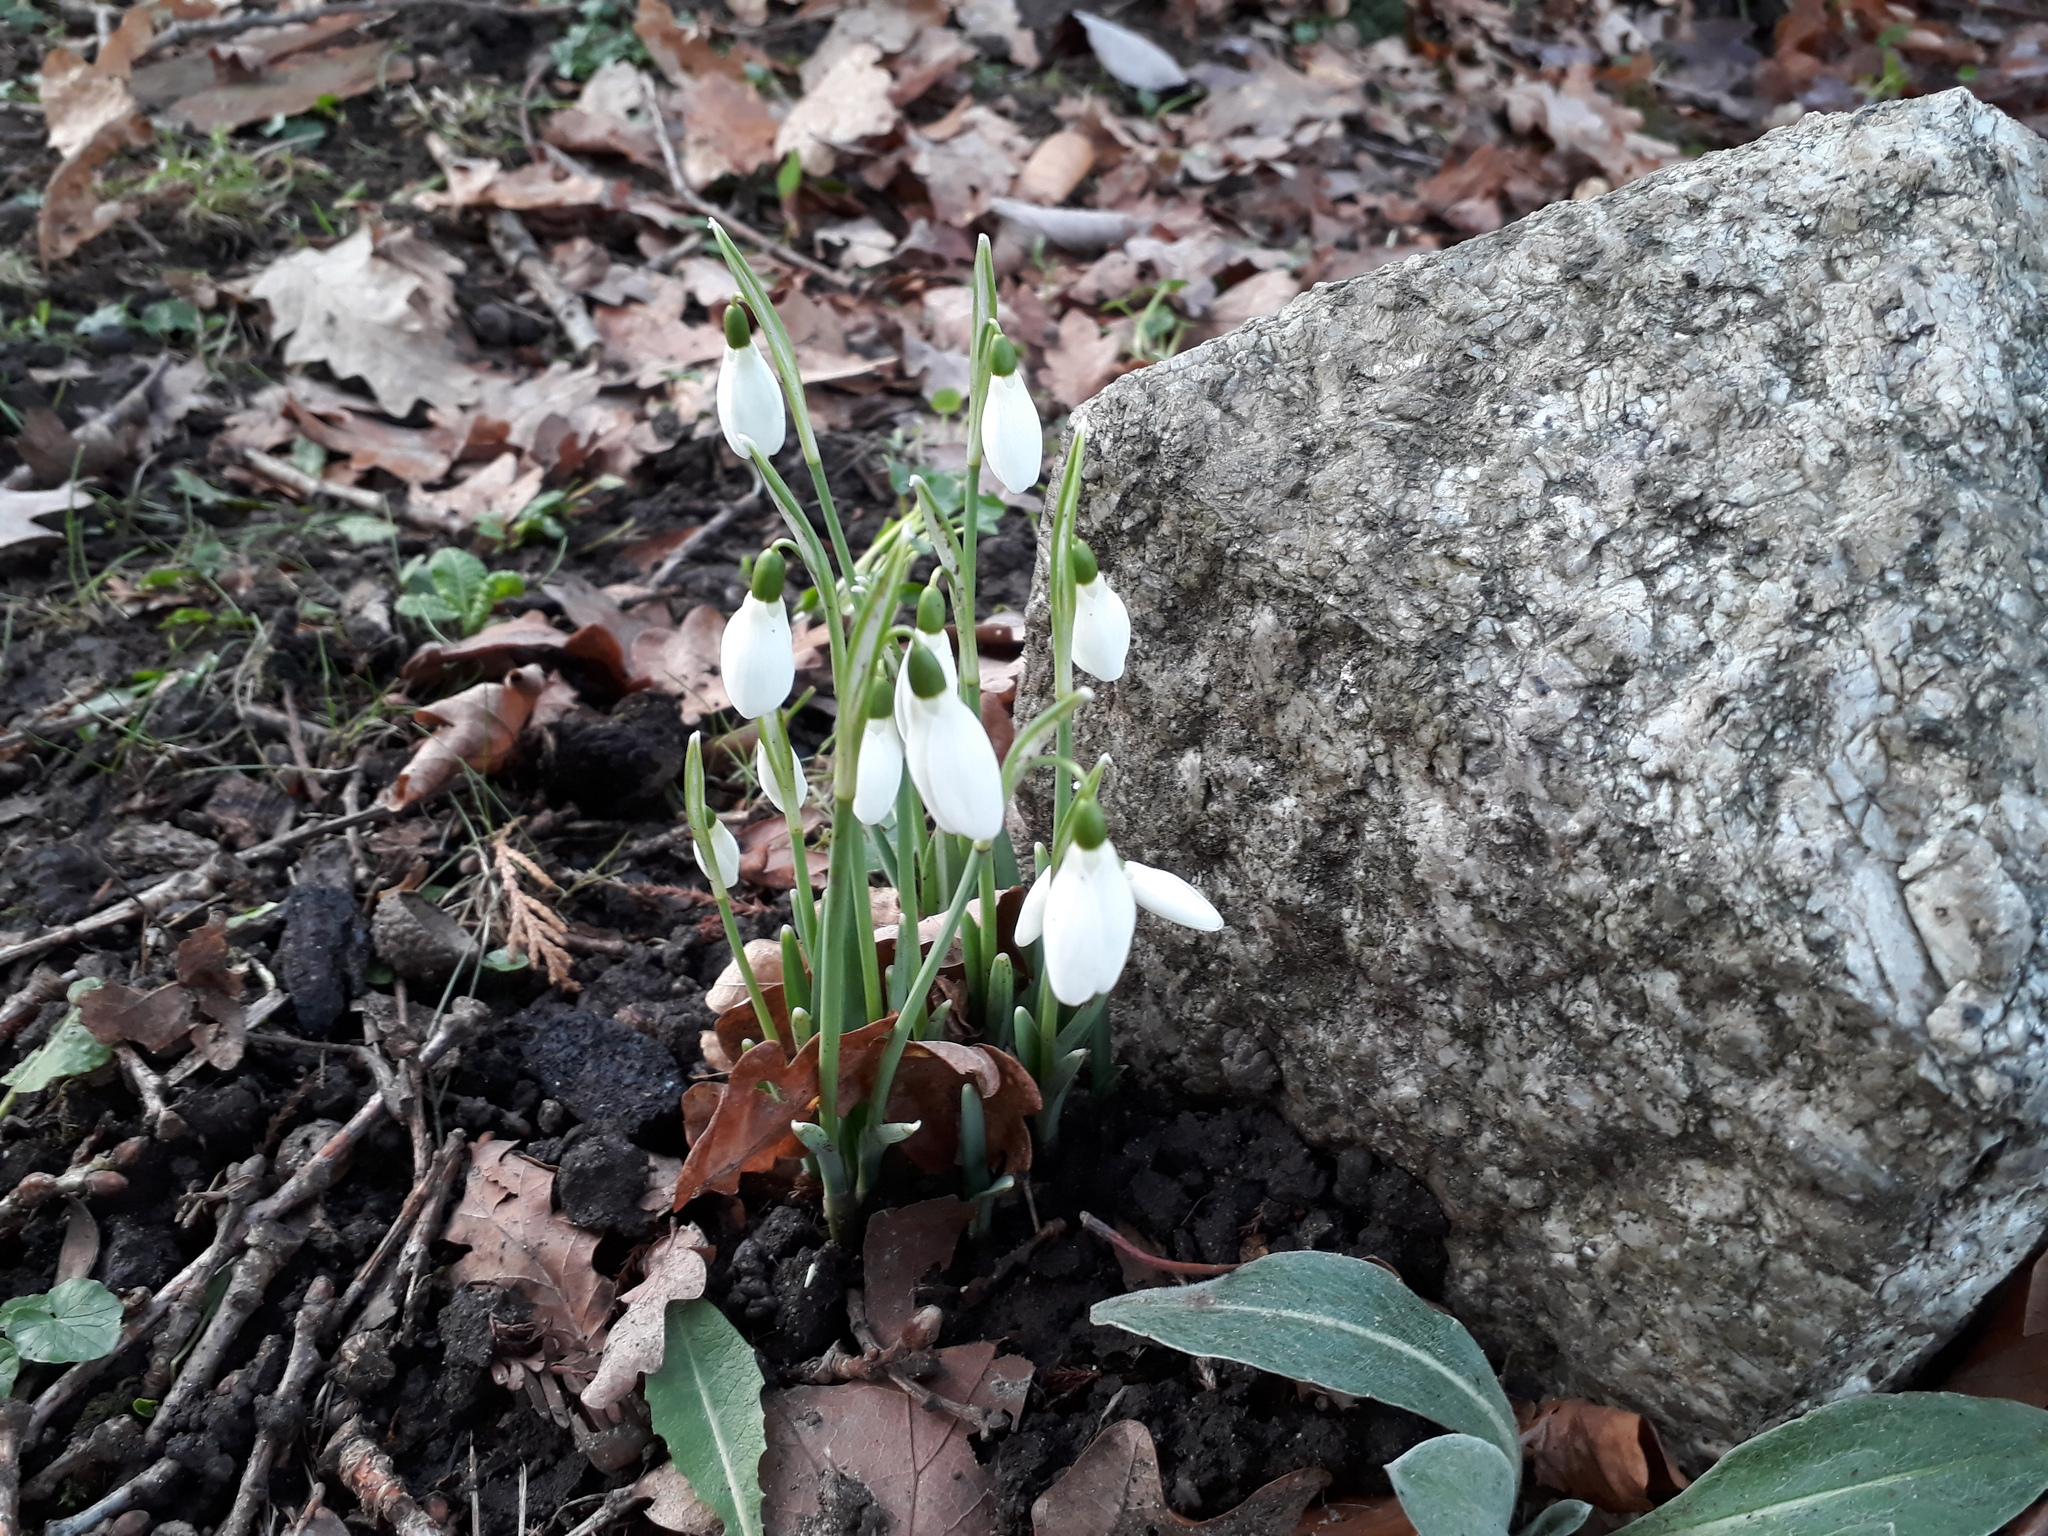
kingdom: Plantae
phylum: Tracheophyta
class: Liliopsida
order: Asparagales
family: Amaryllidaceae
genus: Galanthus
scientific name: Galanthus nivalis
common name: Snowdrop
